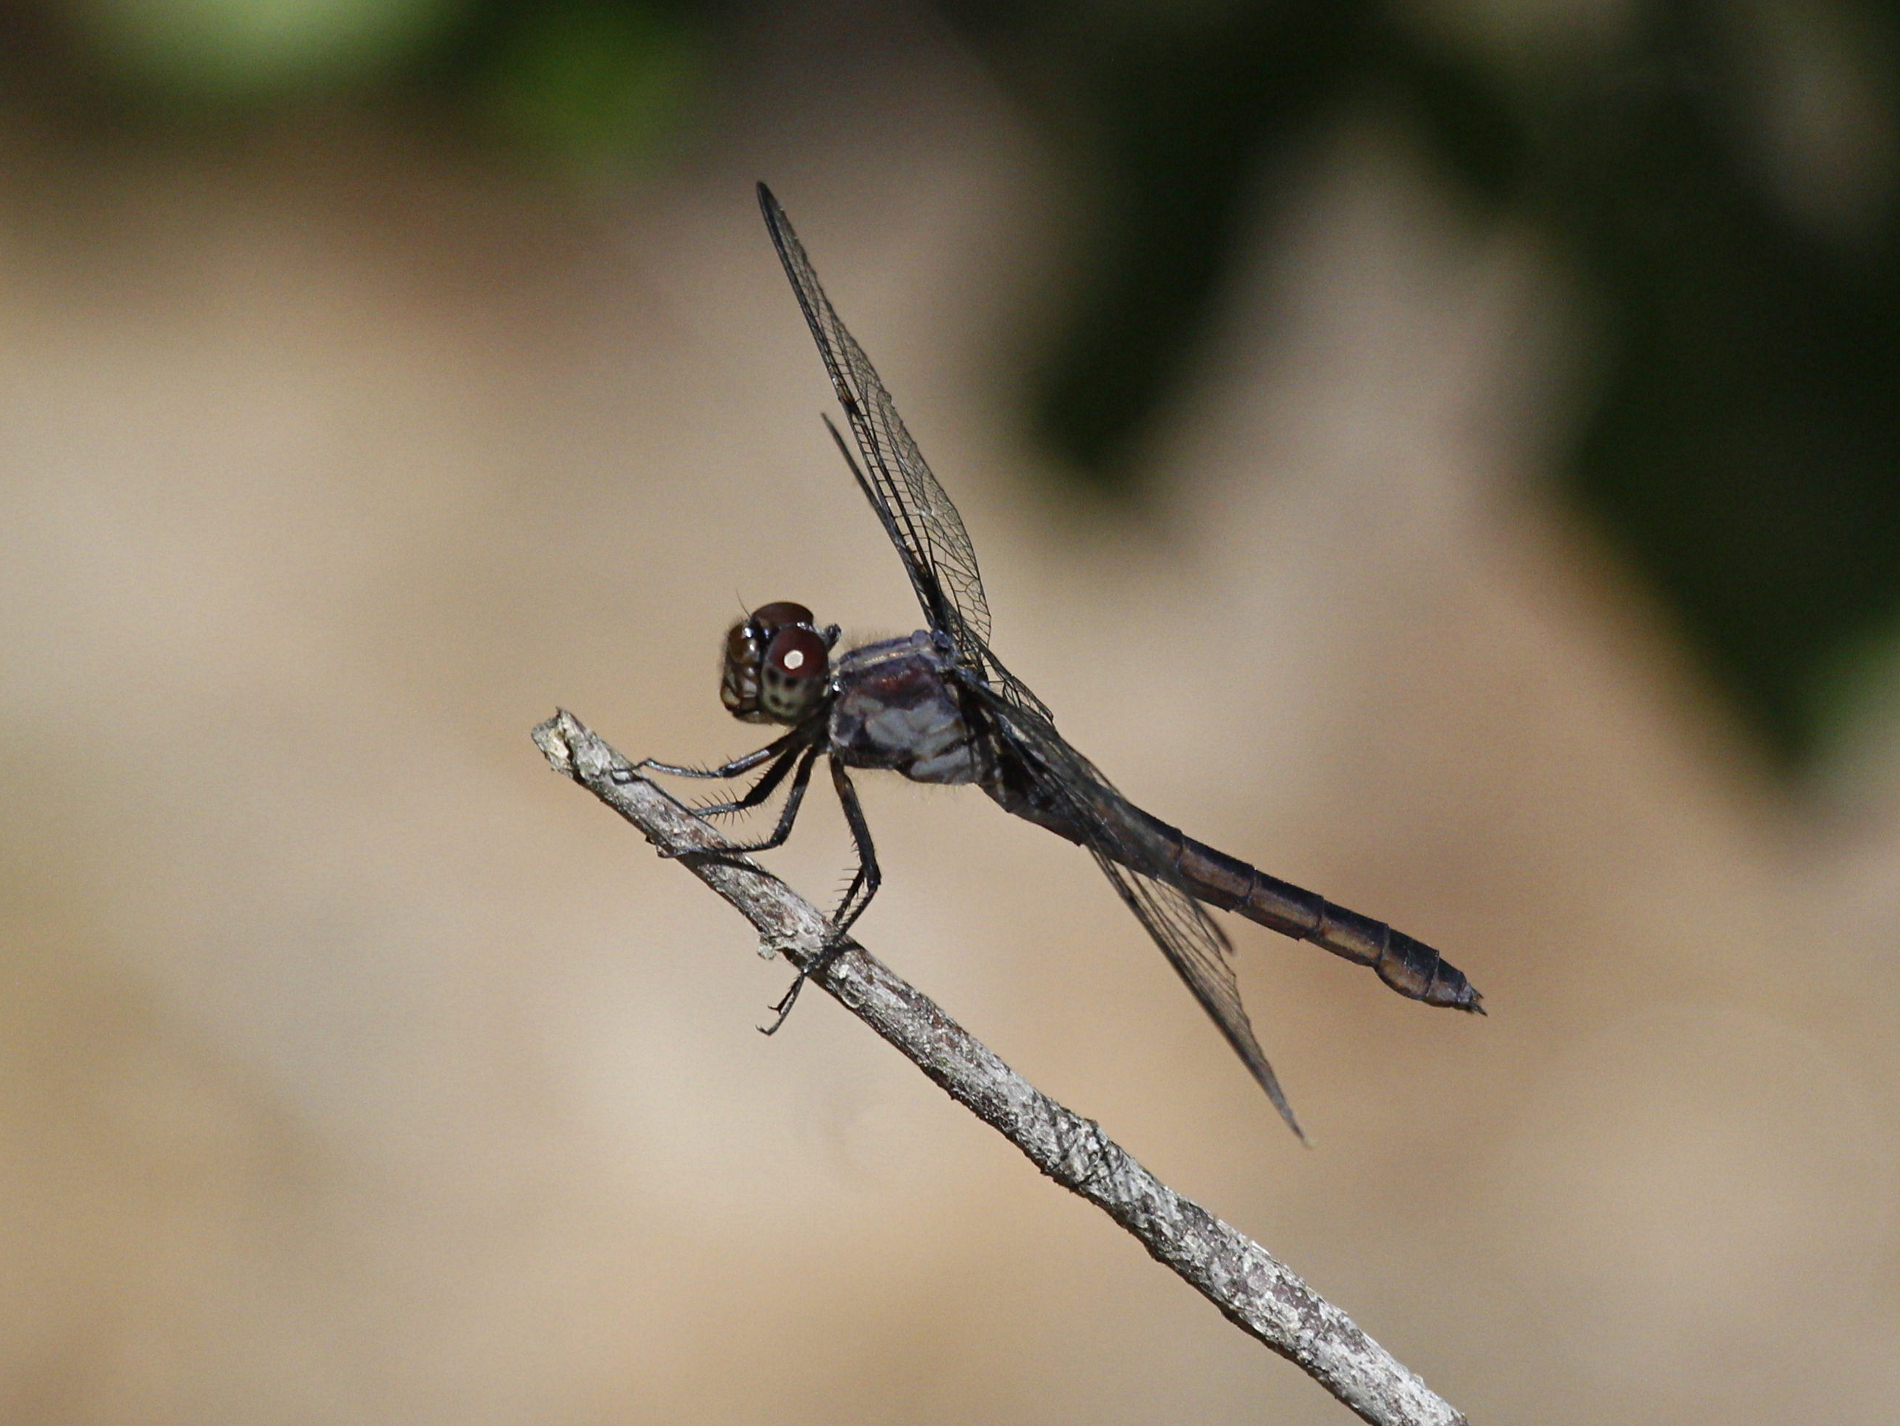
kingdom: Animalia
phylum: Arthropoda
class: Insecta
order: Odonata
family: Libellulidae
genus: Libellula
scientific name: Libellula incesta
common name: Slaty skimmer
